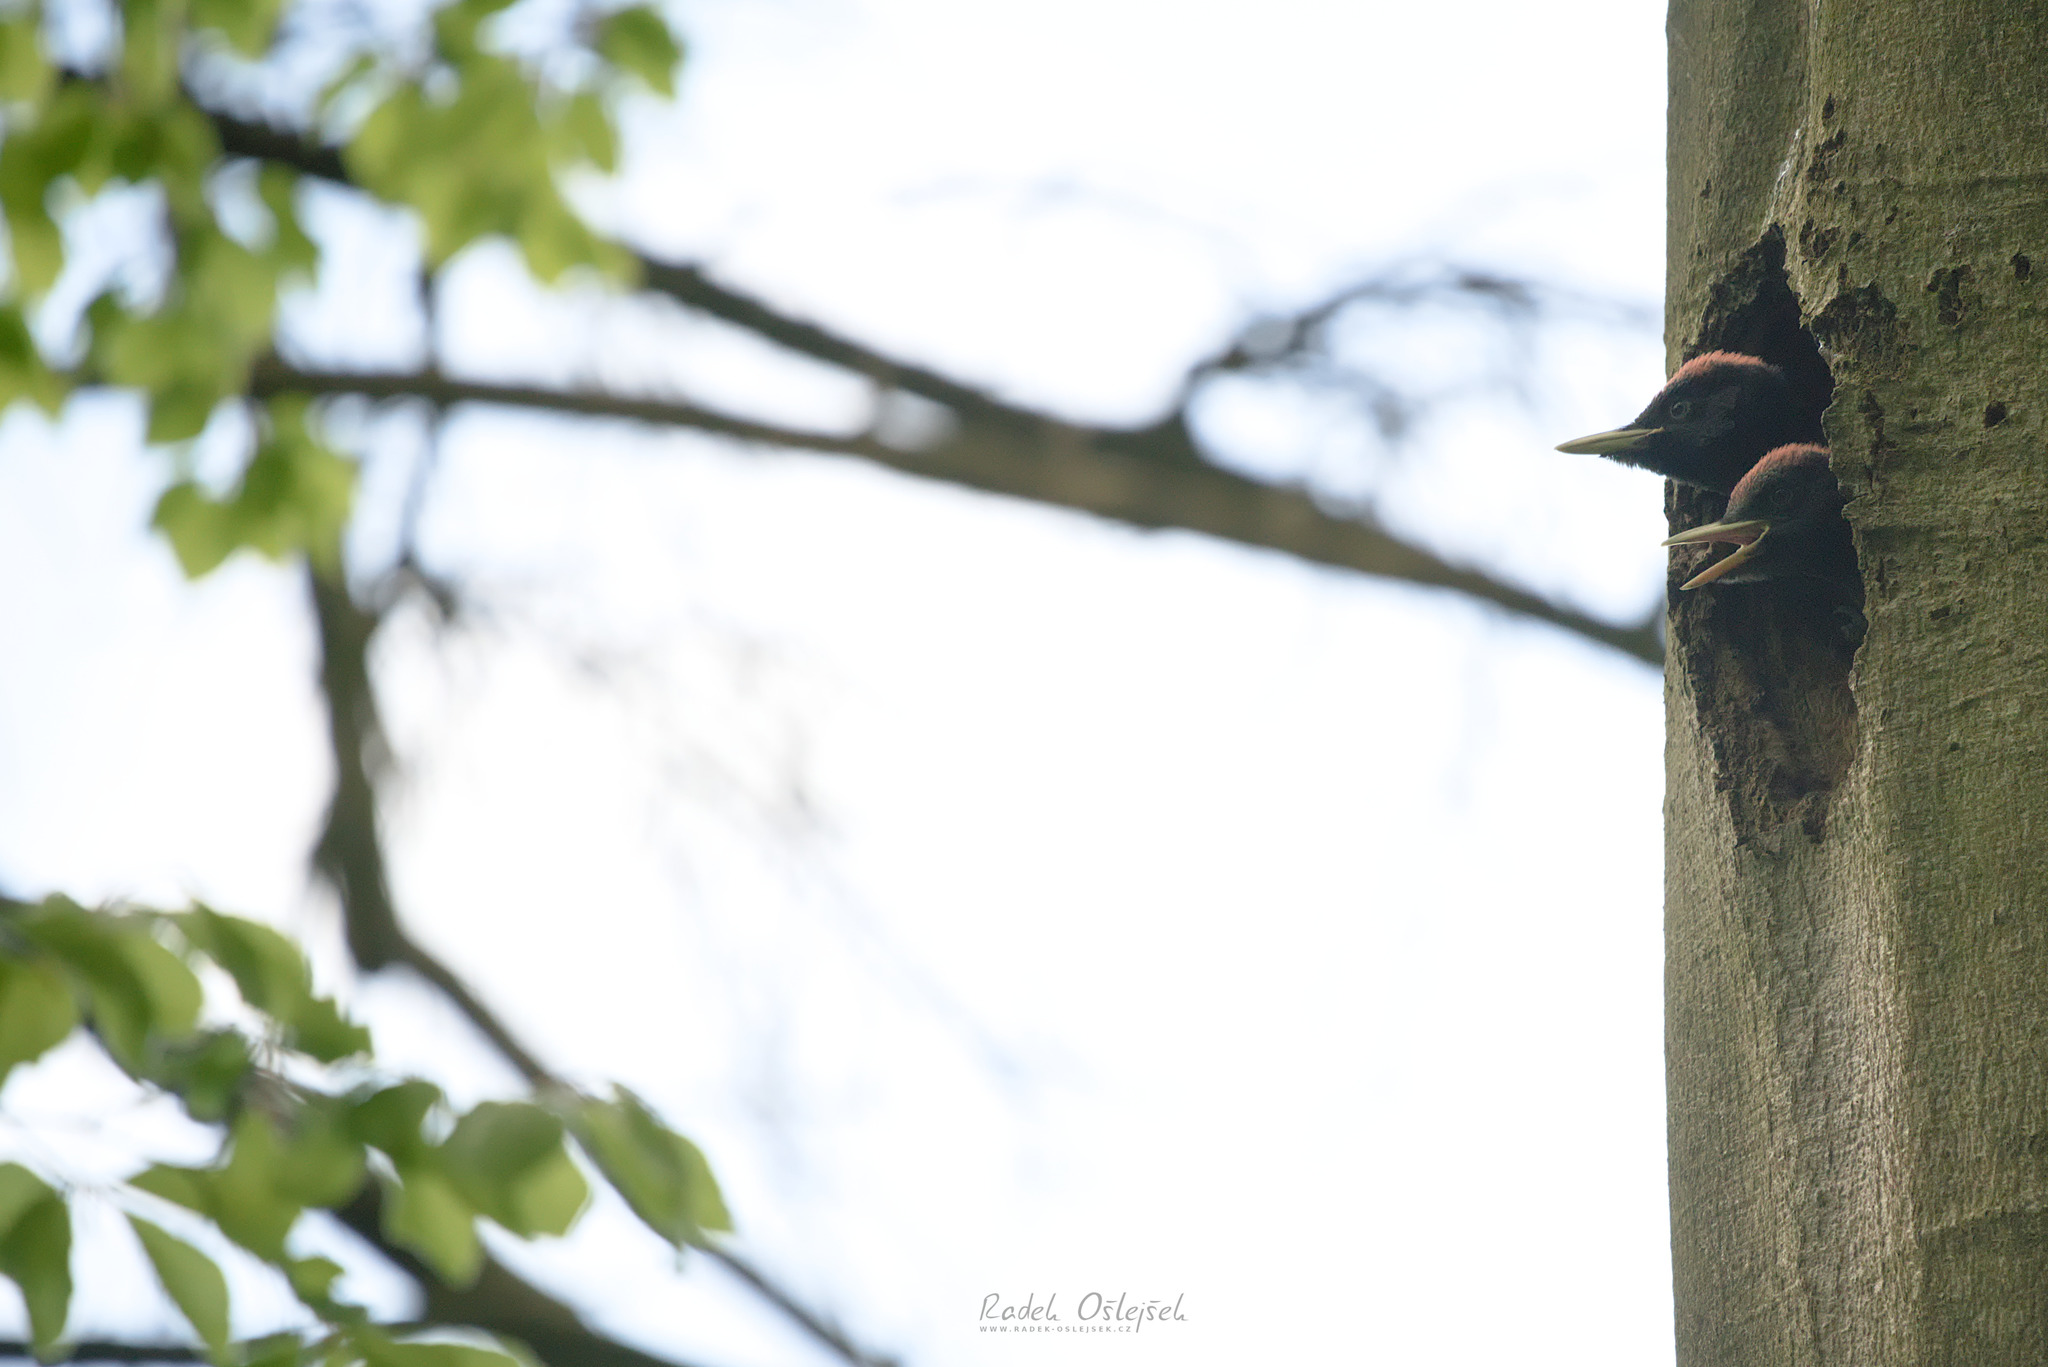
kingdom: Animalia
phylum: Chordata
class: Aves
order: Piciformes
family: Picidae
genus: Dryocopus
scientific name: Dryocopus martius
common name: Black woodpecker
